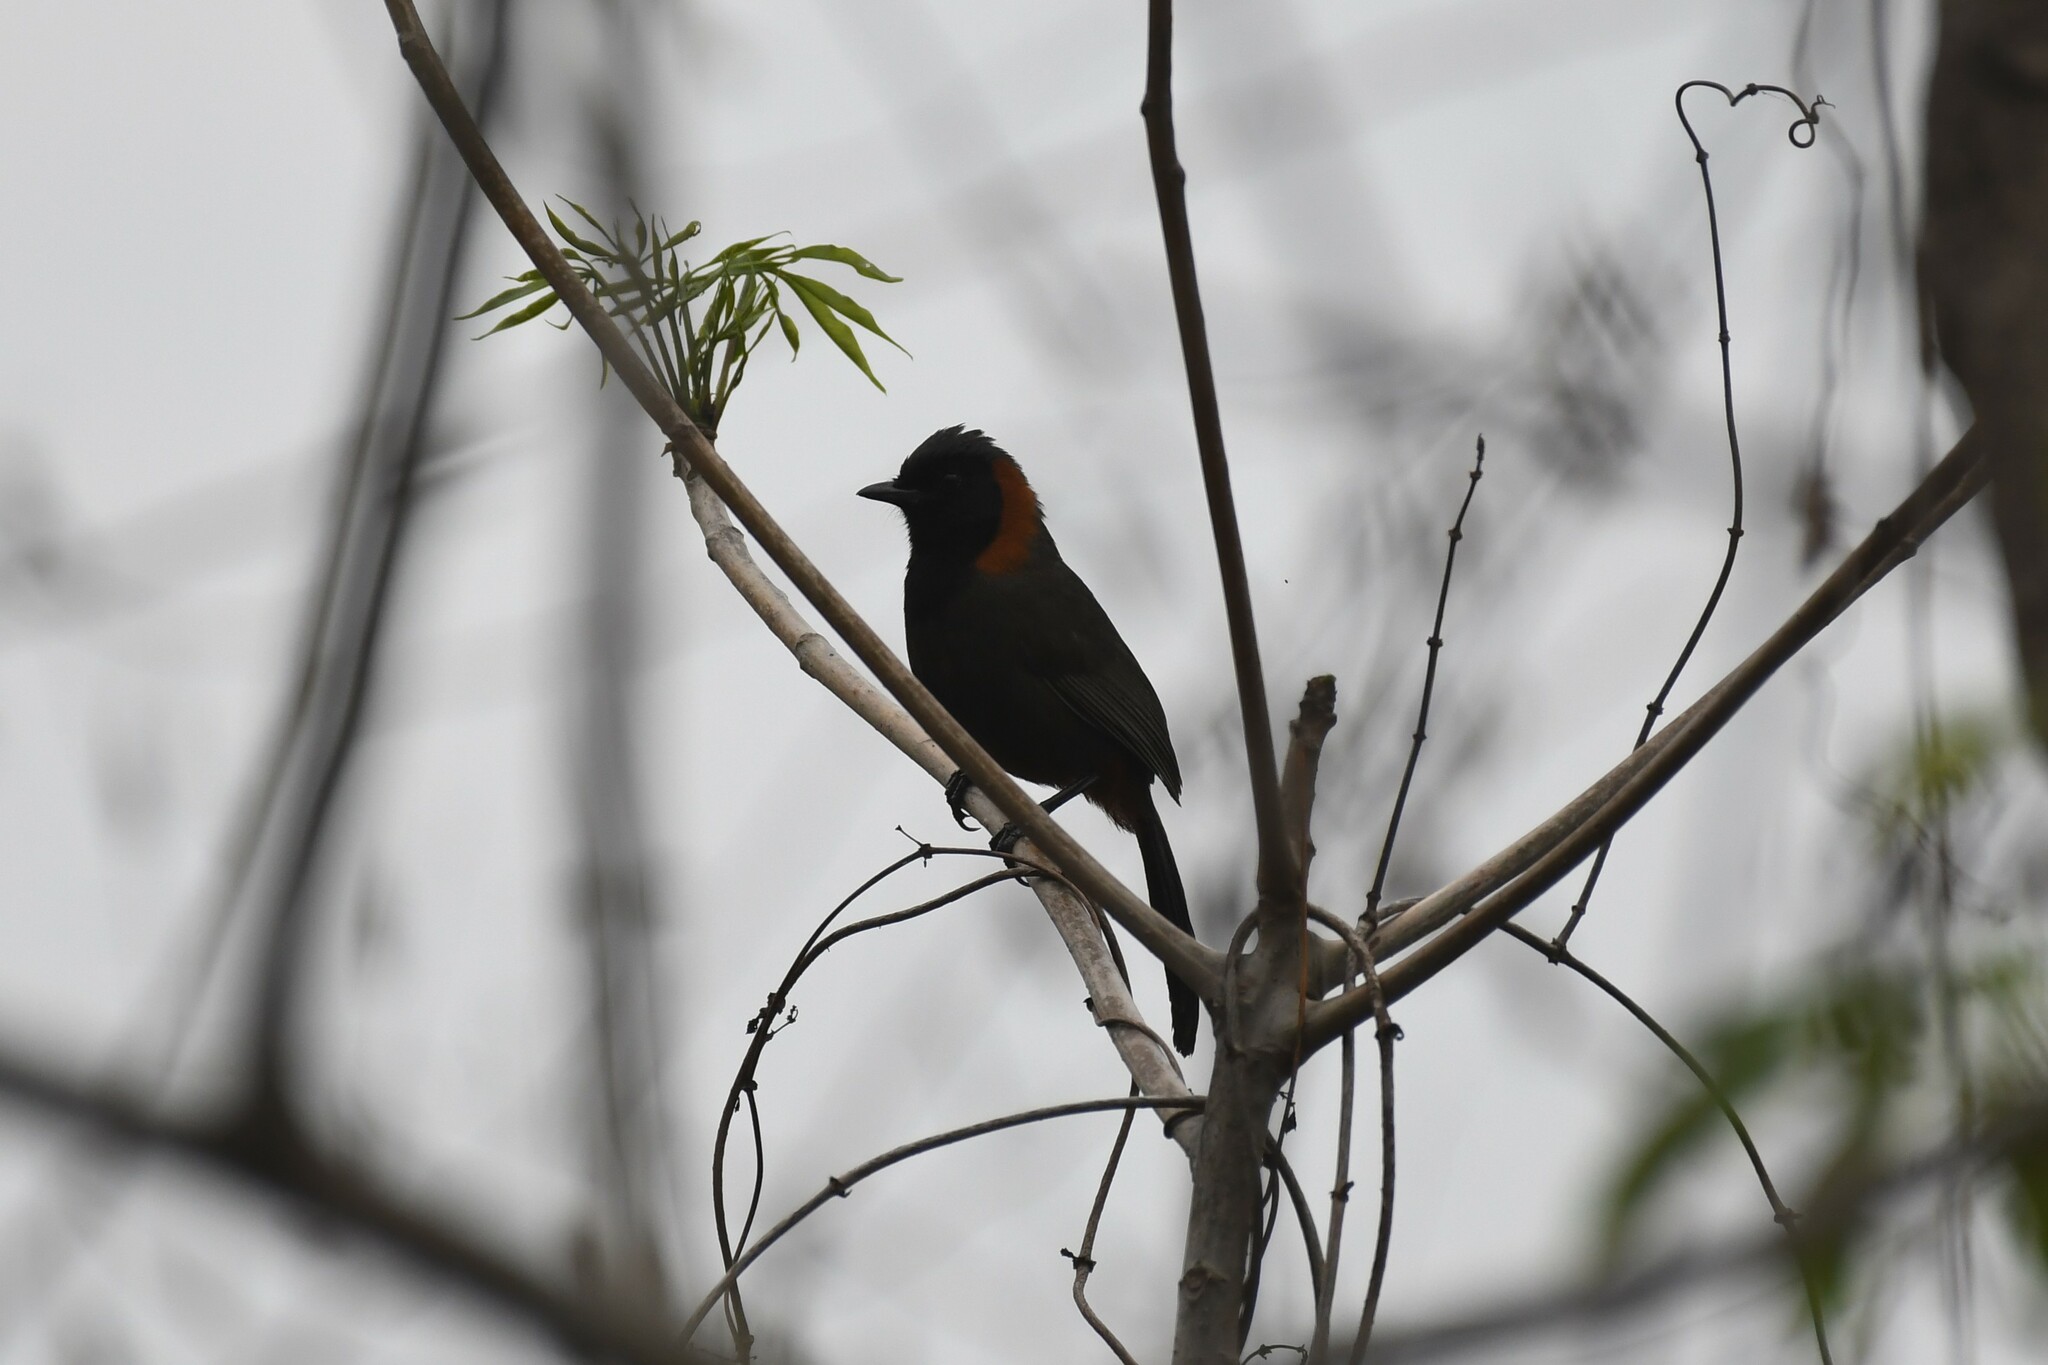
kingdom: Animalia
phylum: Chordata
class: Aves
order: Passeriformes
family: Leiothrichidae
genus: Garrulax
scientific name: Garrulax ruficollis
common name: Rufous-necked laughingthrush
